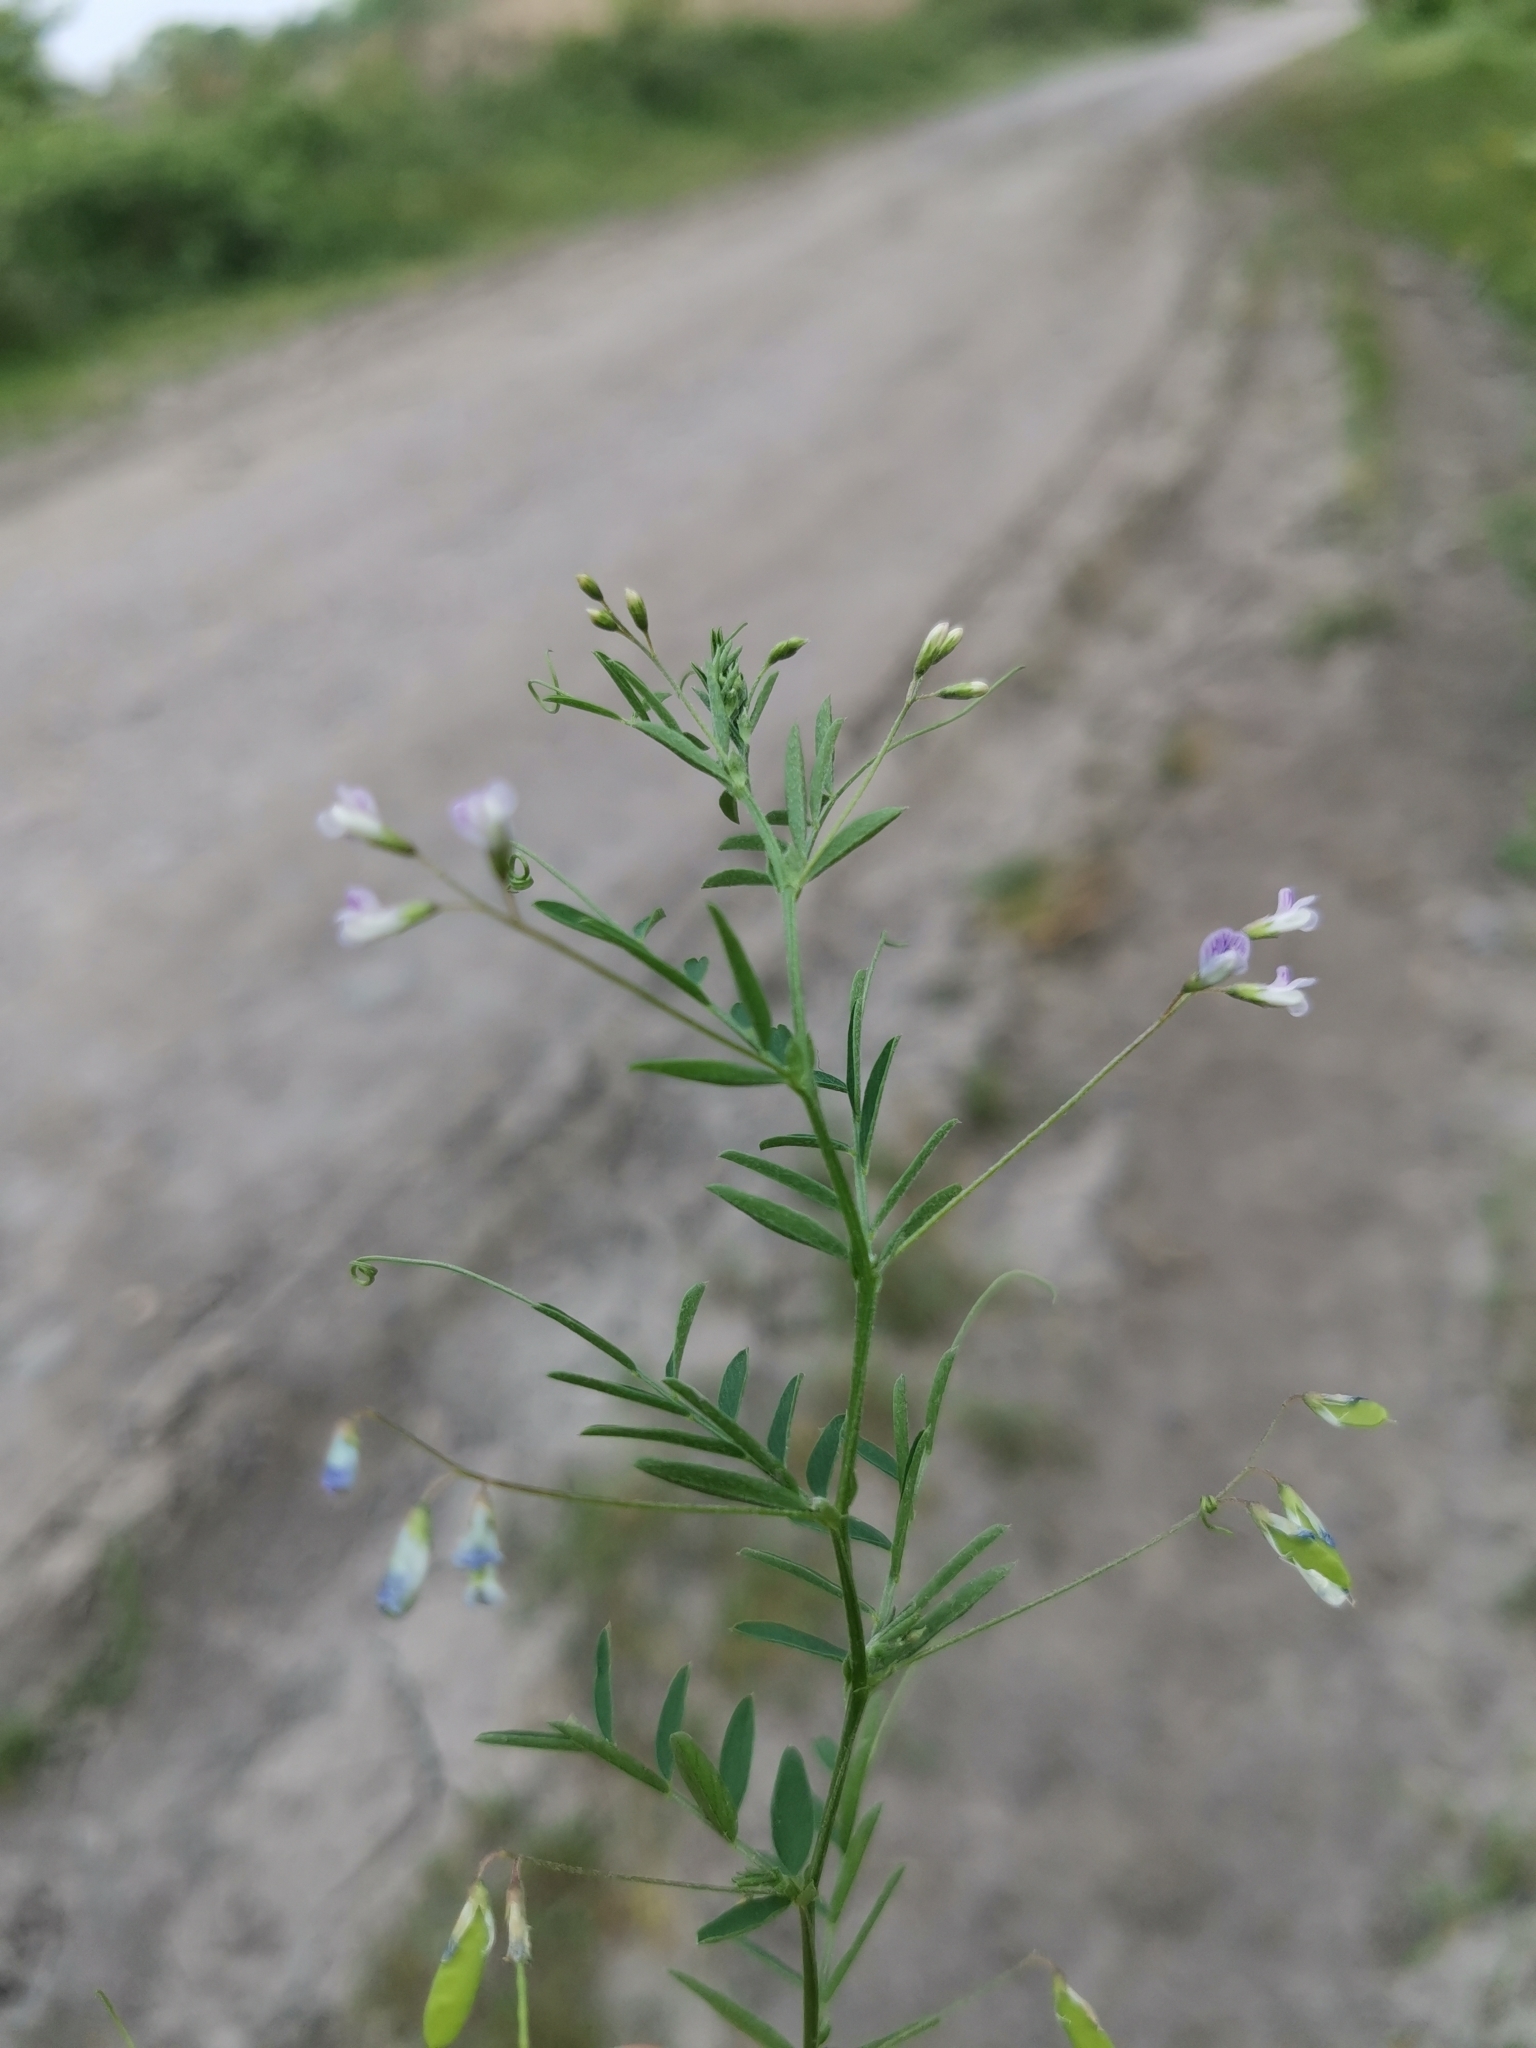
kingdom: Plantae
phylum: Tracheophyta
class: Magnoliopsida
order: Fabales
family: Fabaceae
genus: Vicia
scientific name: Vicia tetrasperma
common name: Smooth tare
